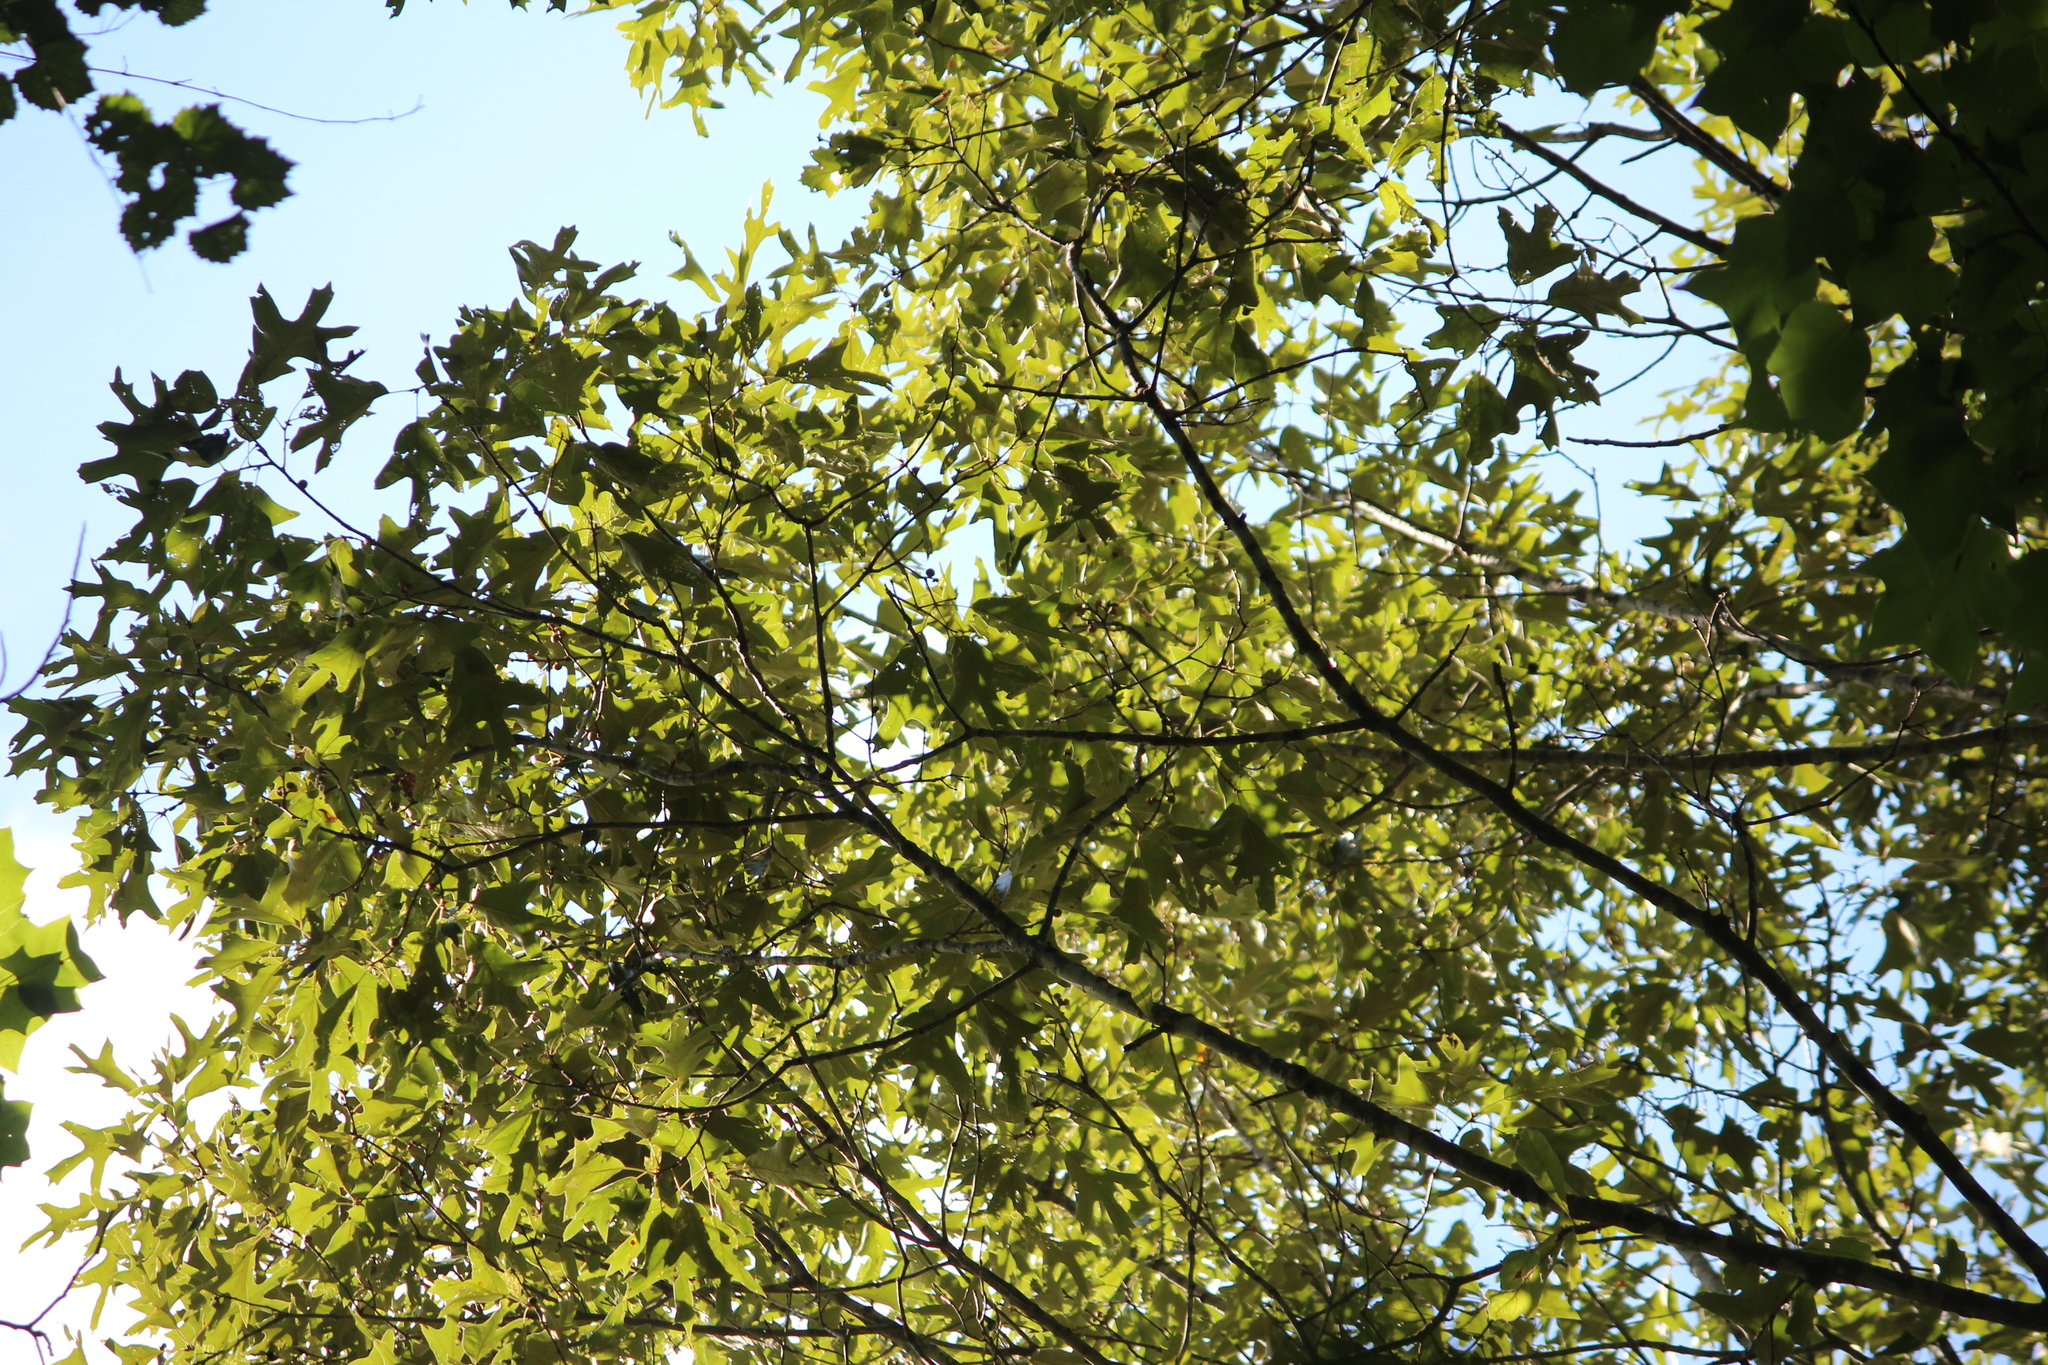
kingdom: Plantae
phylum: Tracheophyta
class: Magnoliopsida
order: Fagales
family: Fagaceae
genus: Quercus
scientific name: Quercus falcata
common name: Southern red oak
